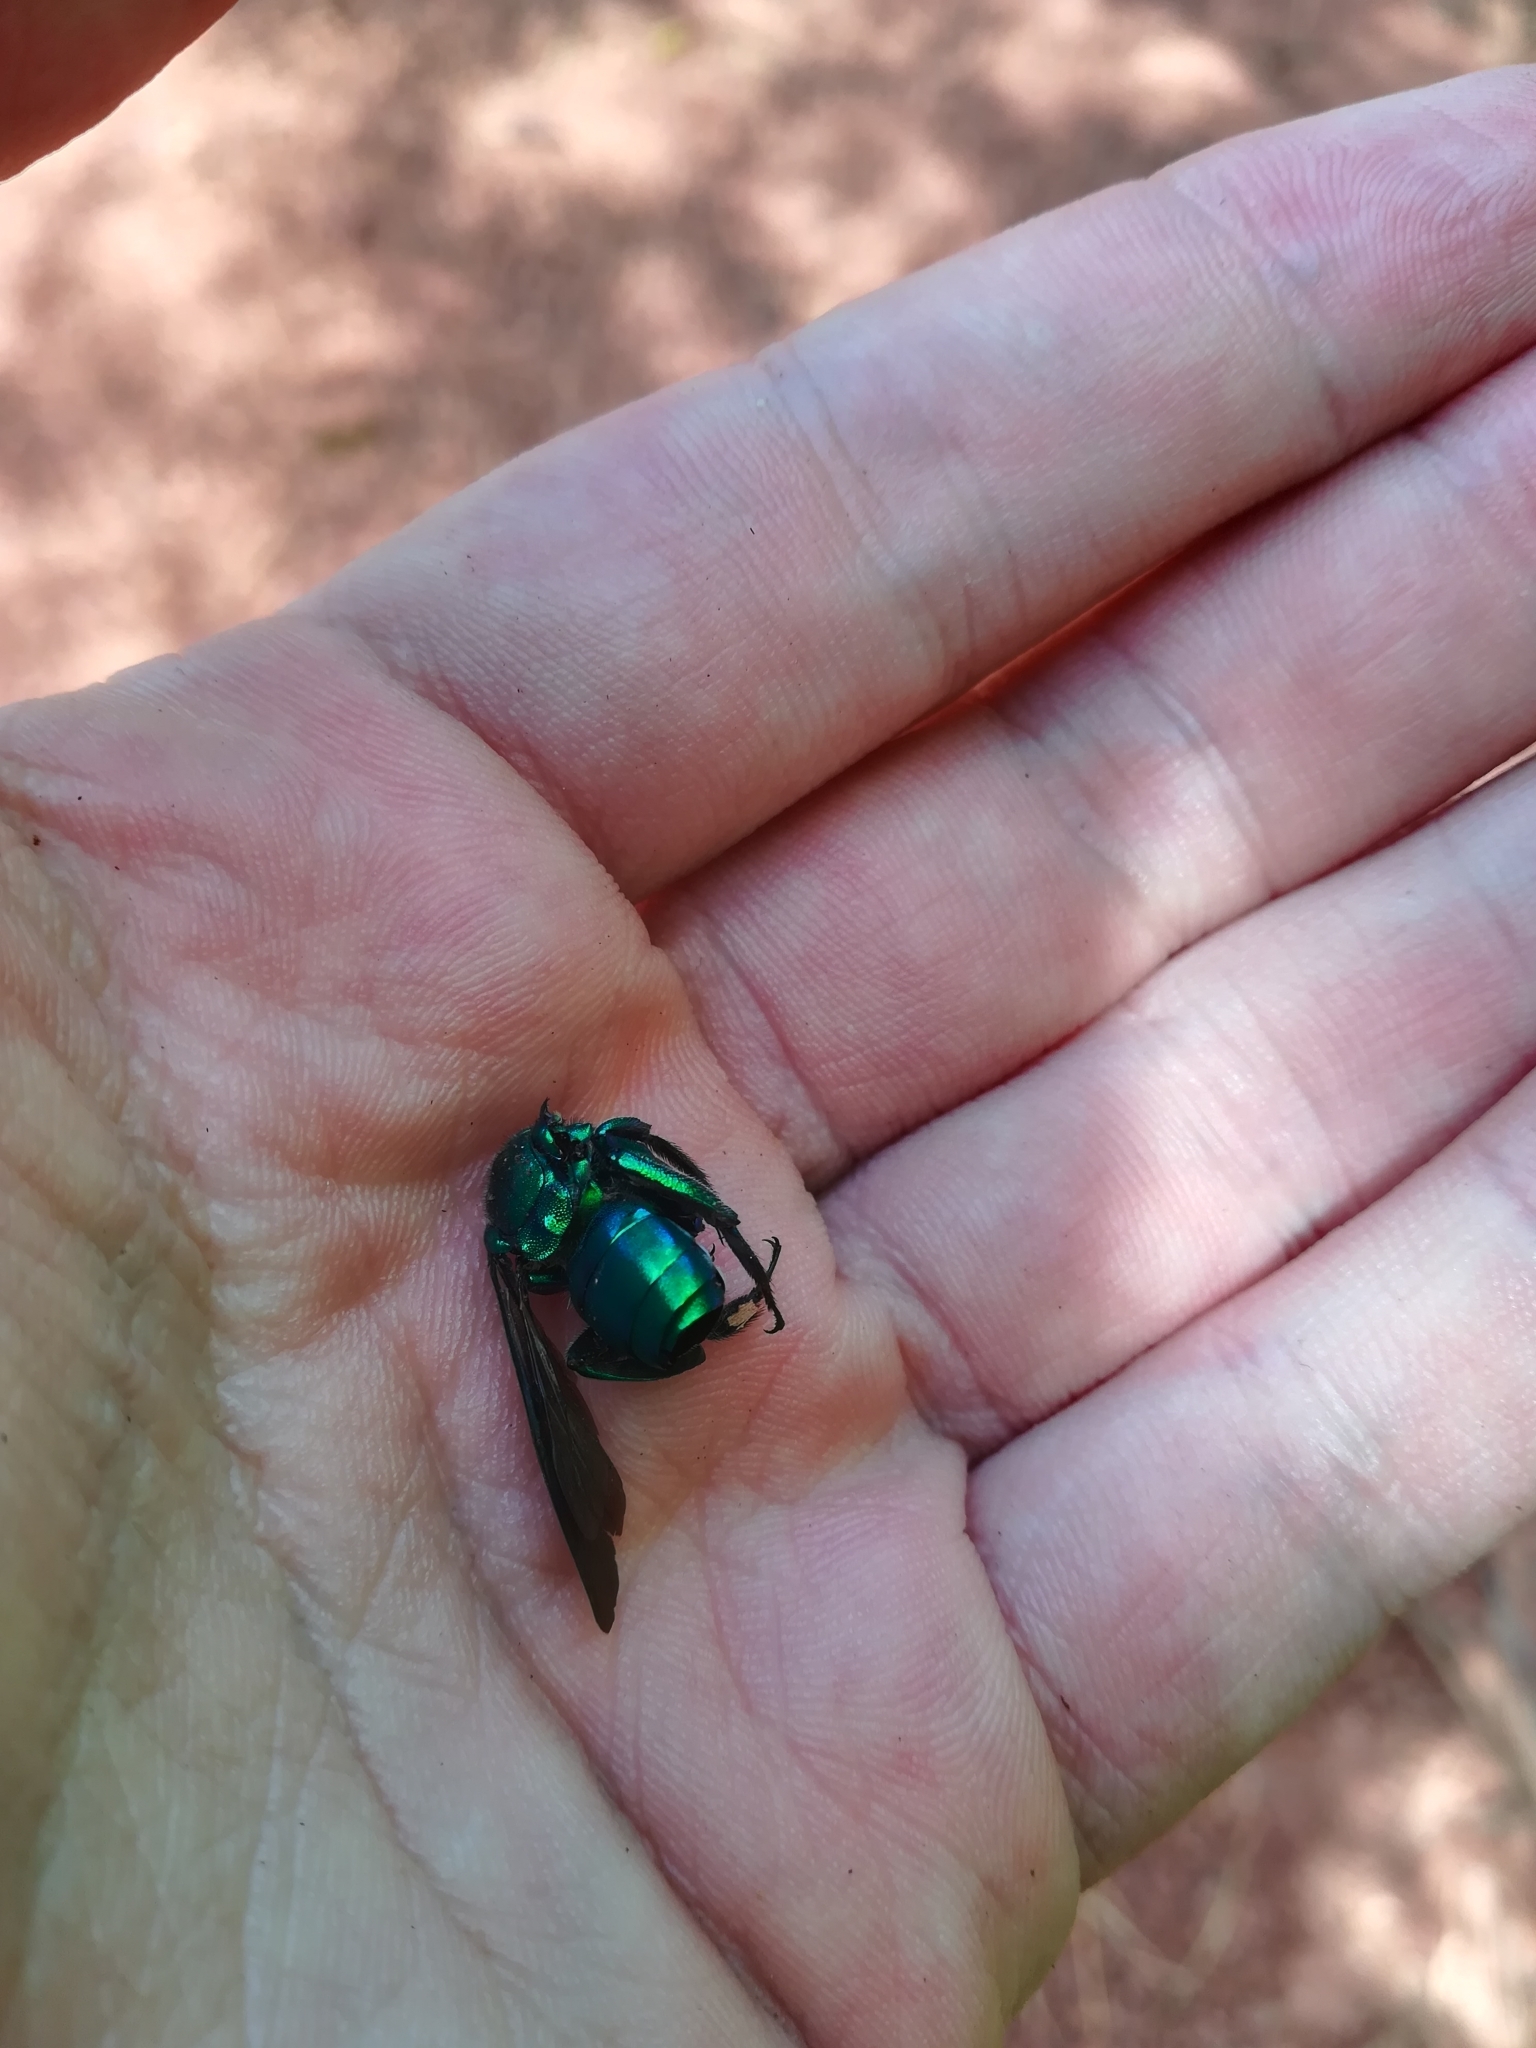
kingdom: Animalia
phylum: Arthropoda
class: Insecta
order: Hymenoptera
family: Apidae
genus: Exaerete
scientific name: Exaerete smaragdina
